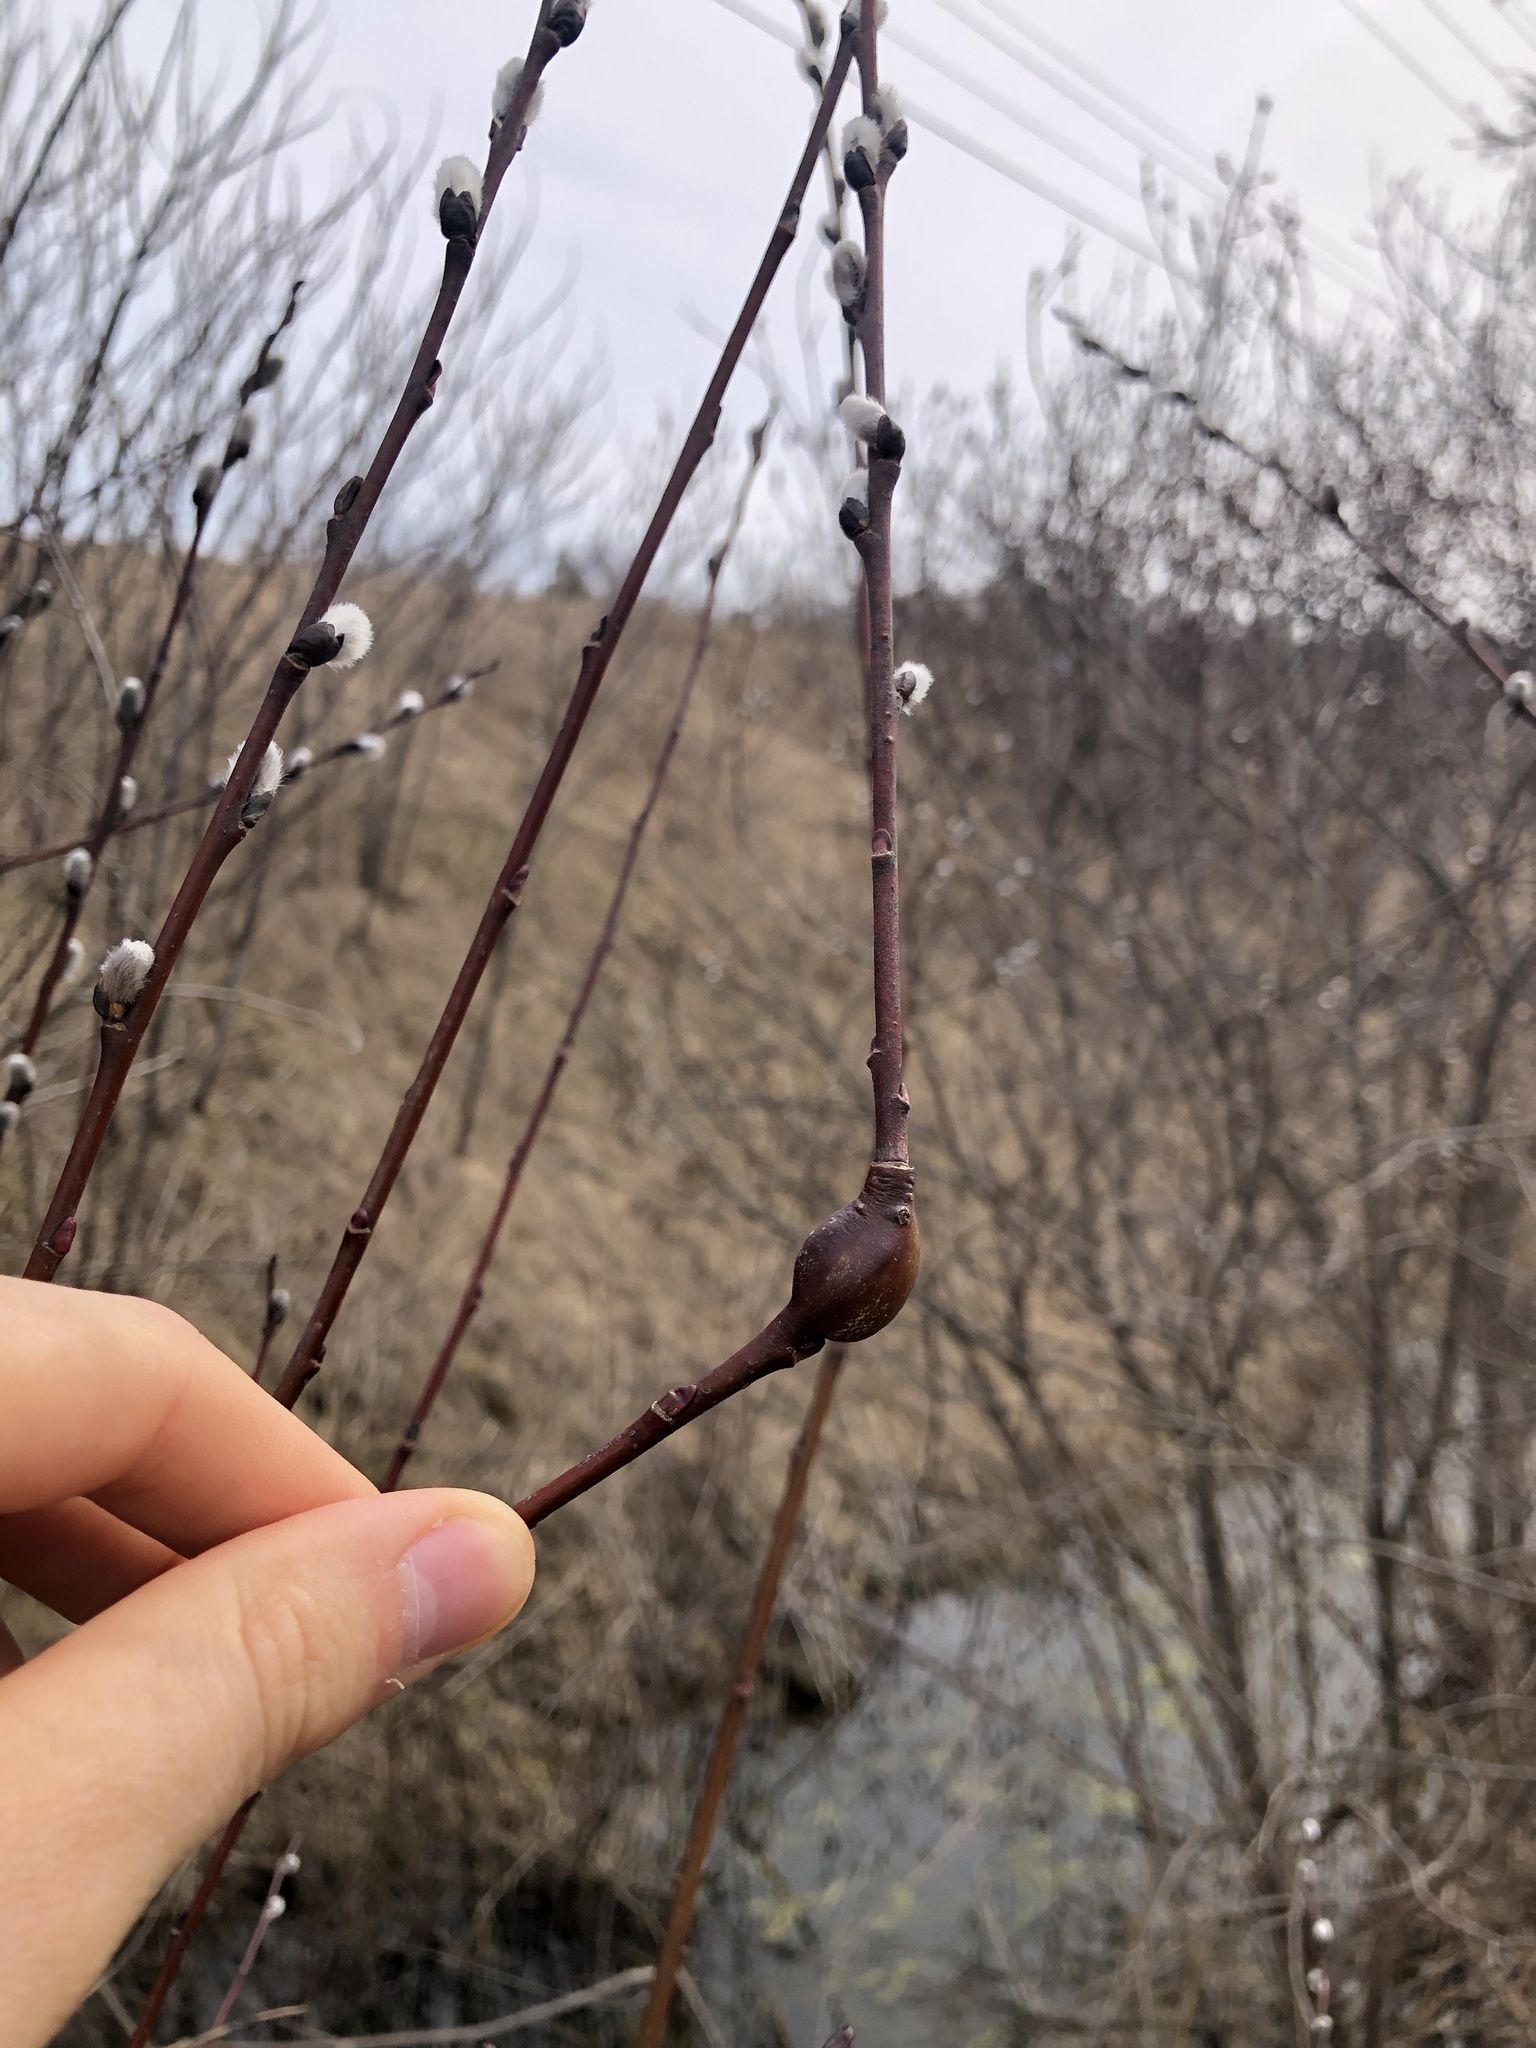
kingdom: Animalia
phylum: Arthropoda
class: Insecta
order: Diptera
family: Cecidomyiidae
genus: Thecodiplosis
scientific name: Thecodiplosis pinirigidae
